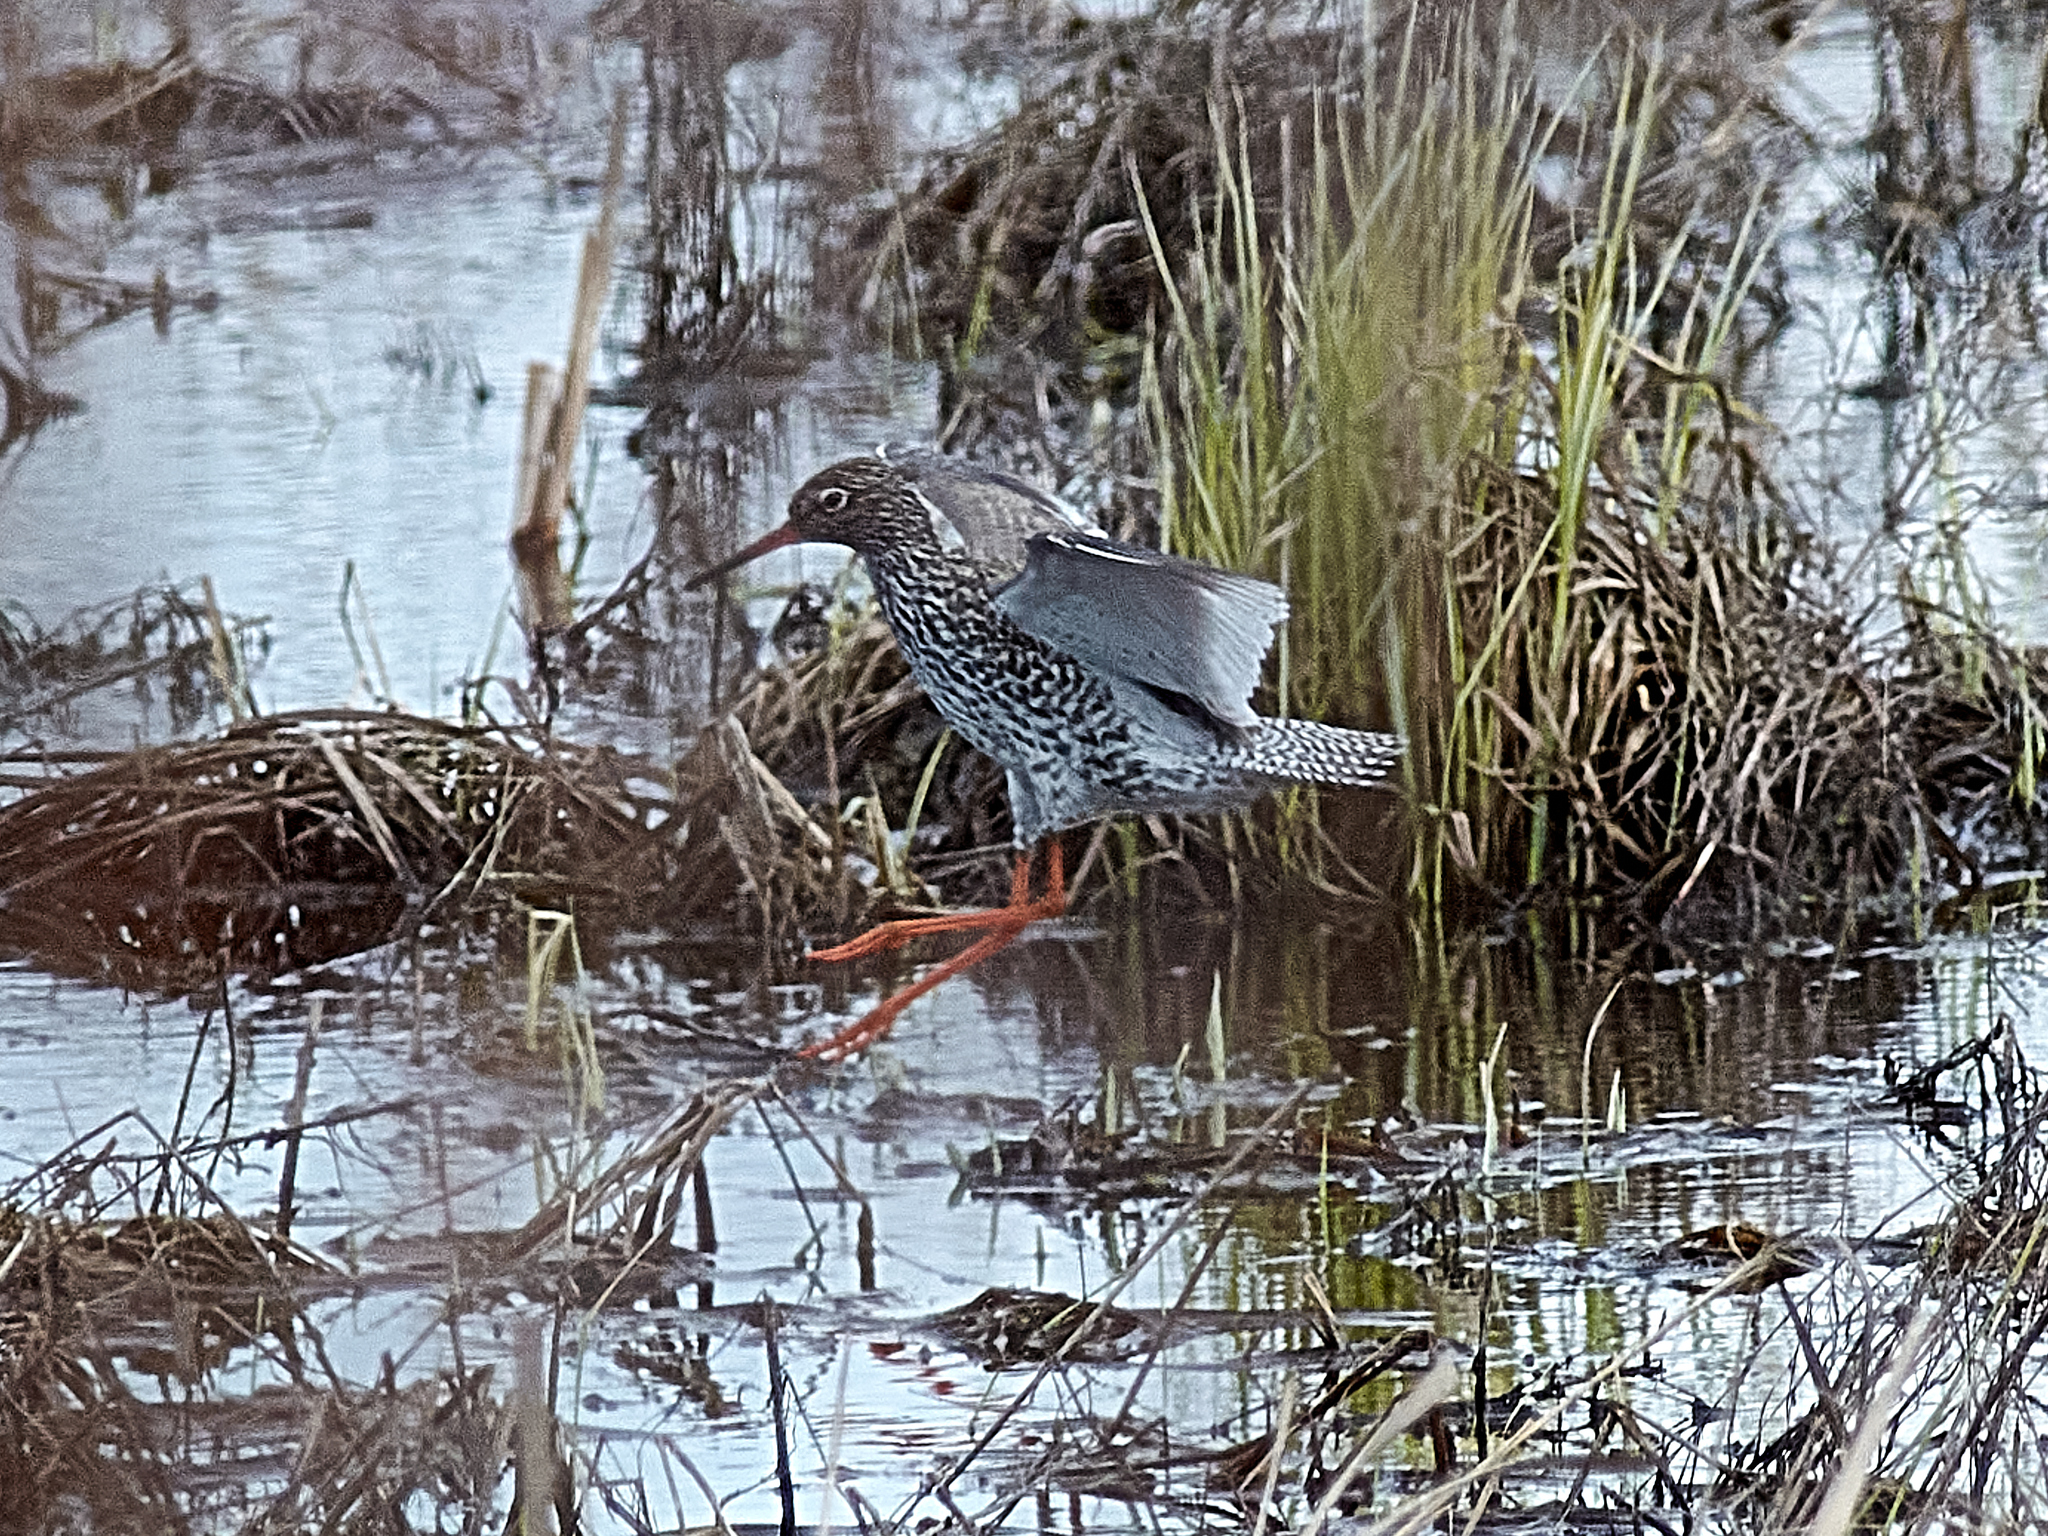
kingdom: Animalia
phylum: Chordata
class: Aves
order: Charadriiformes
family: Scolopacidae
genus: Tringa
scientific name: Tringa totanus
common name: Common redshank
